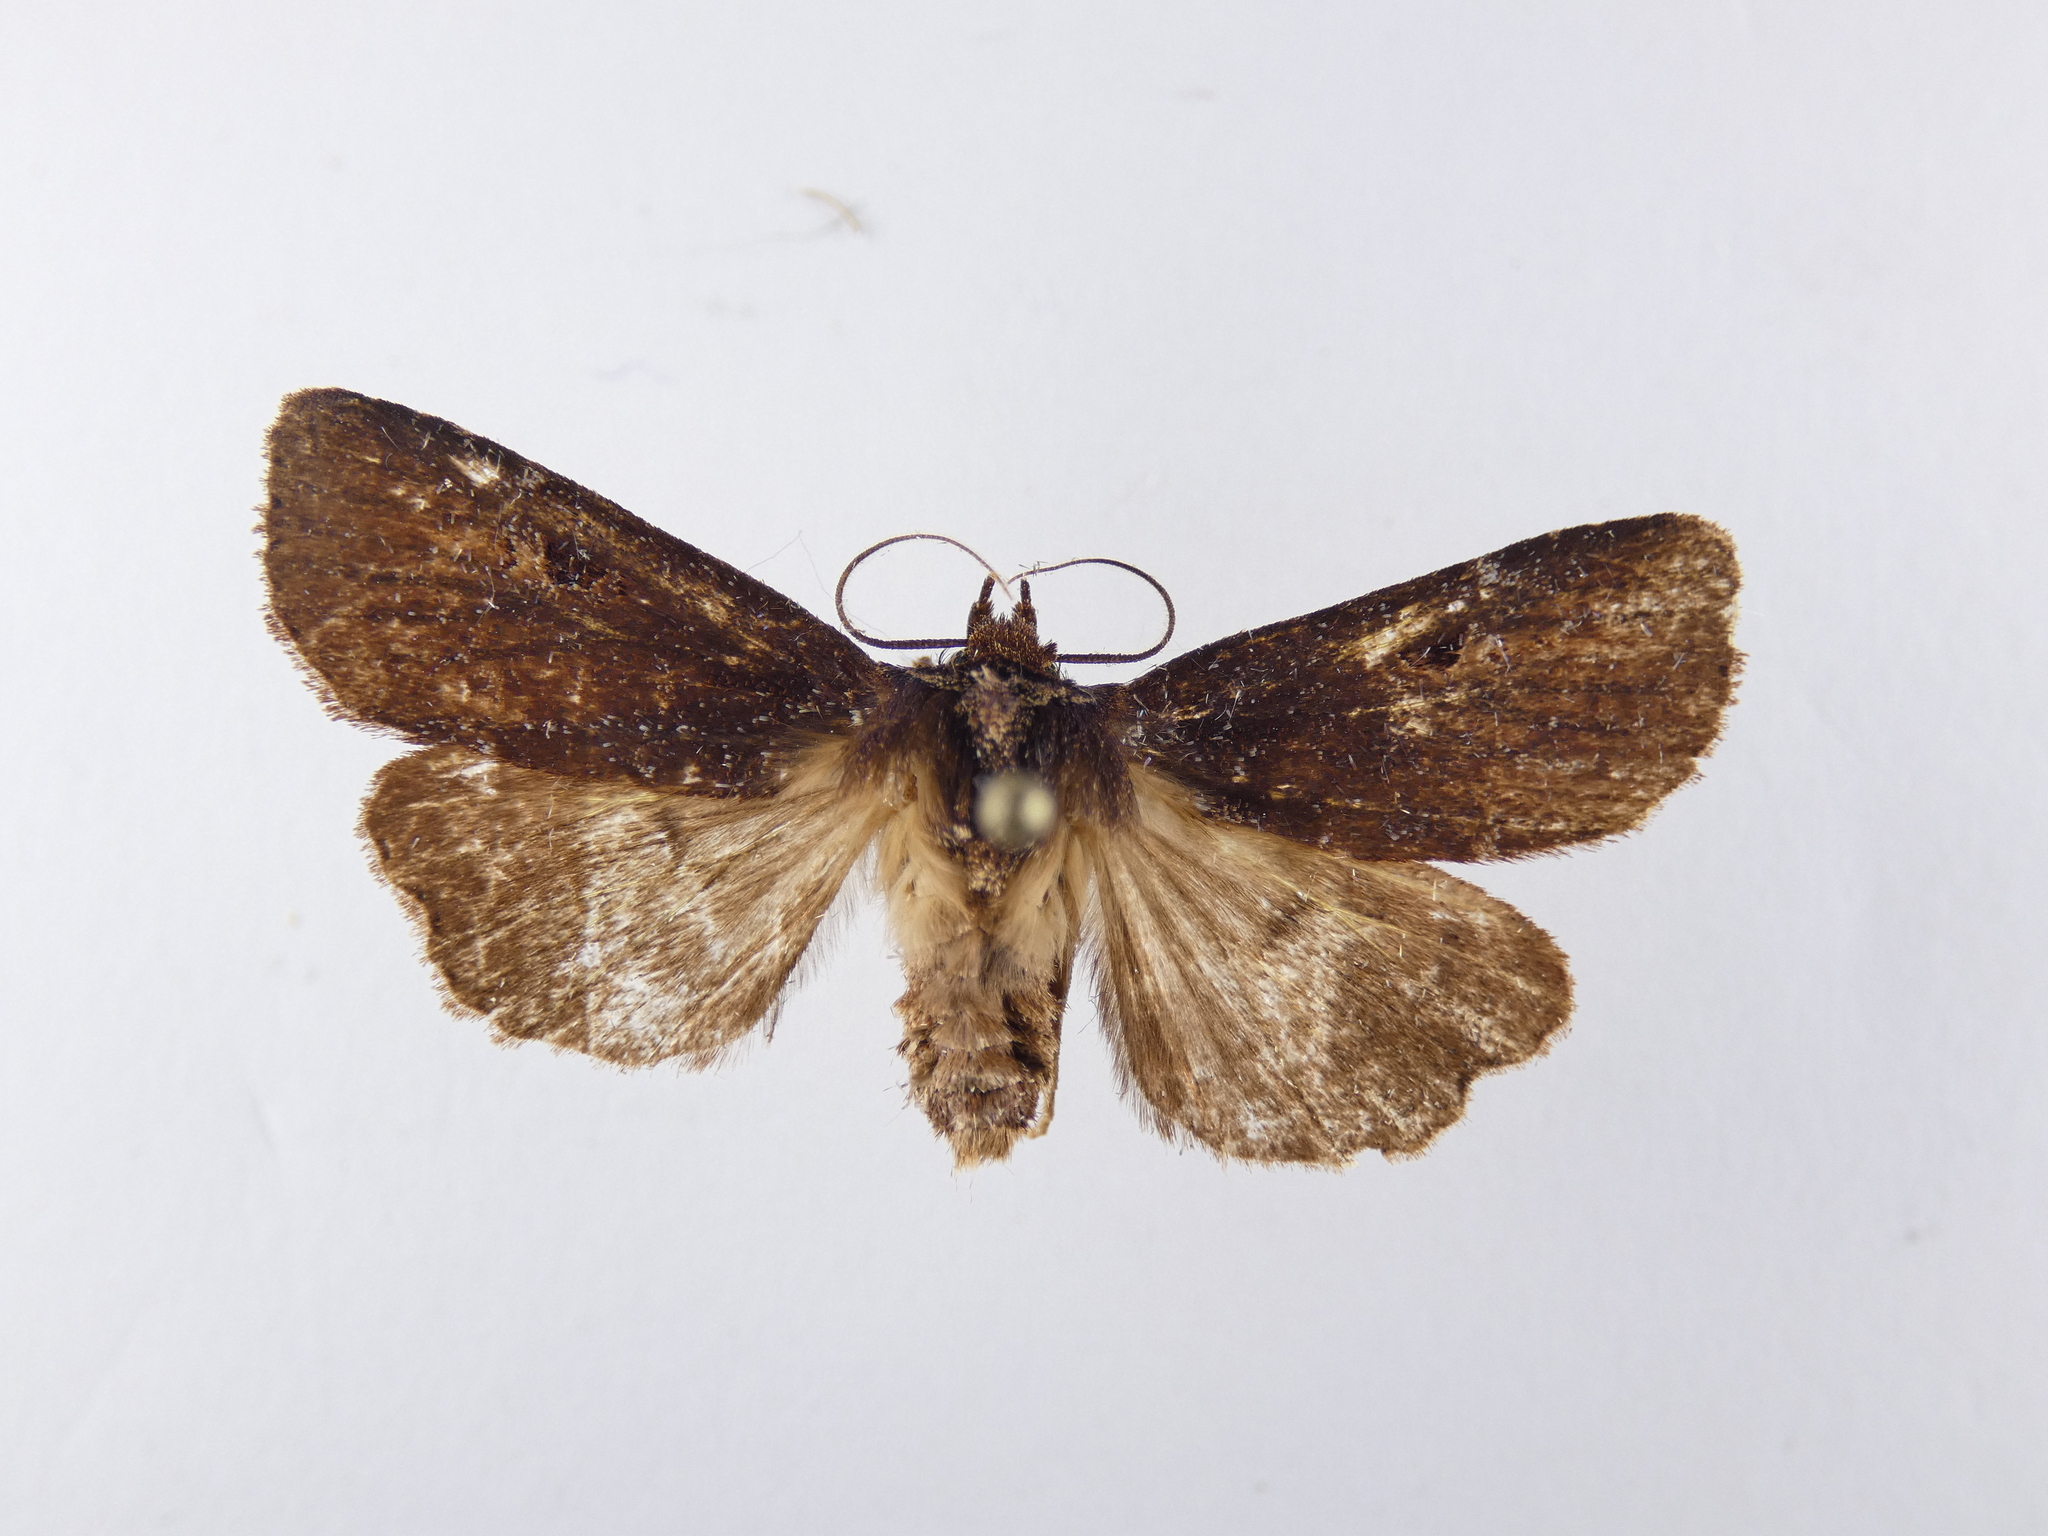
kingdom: Animalia
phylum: Arthropoda
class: Insecta
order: Lepidoptera
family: Noctuidae
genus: Austramathes
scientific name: Austramathes purpurea
